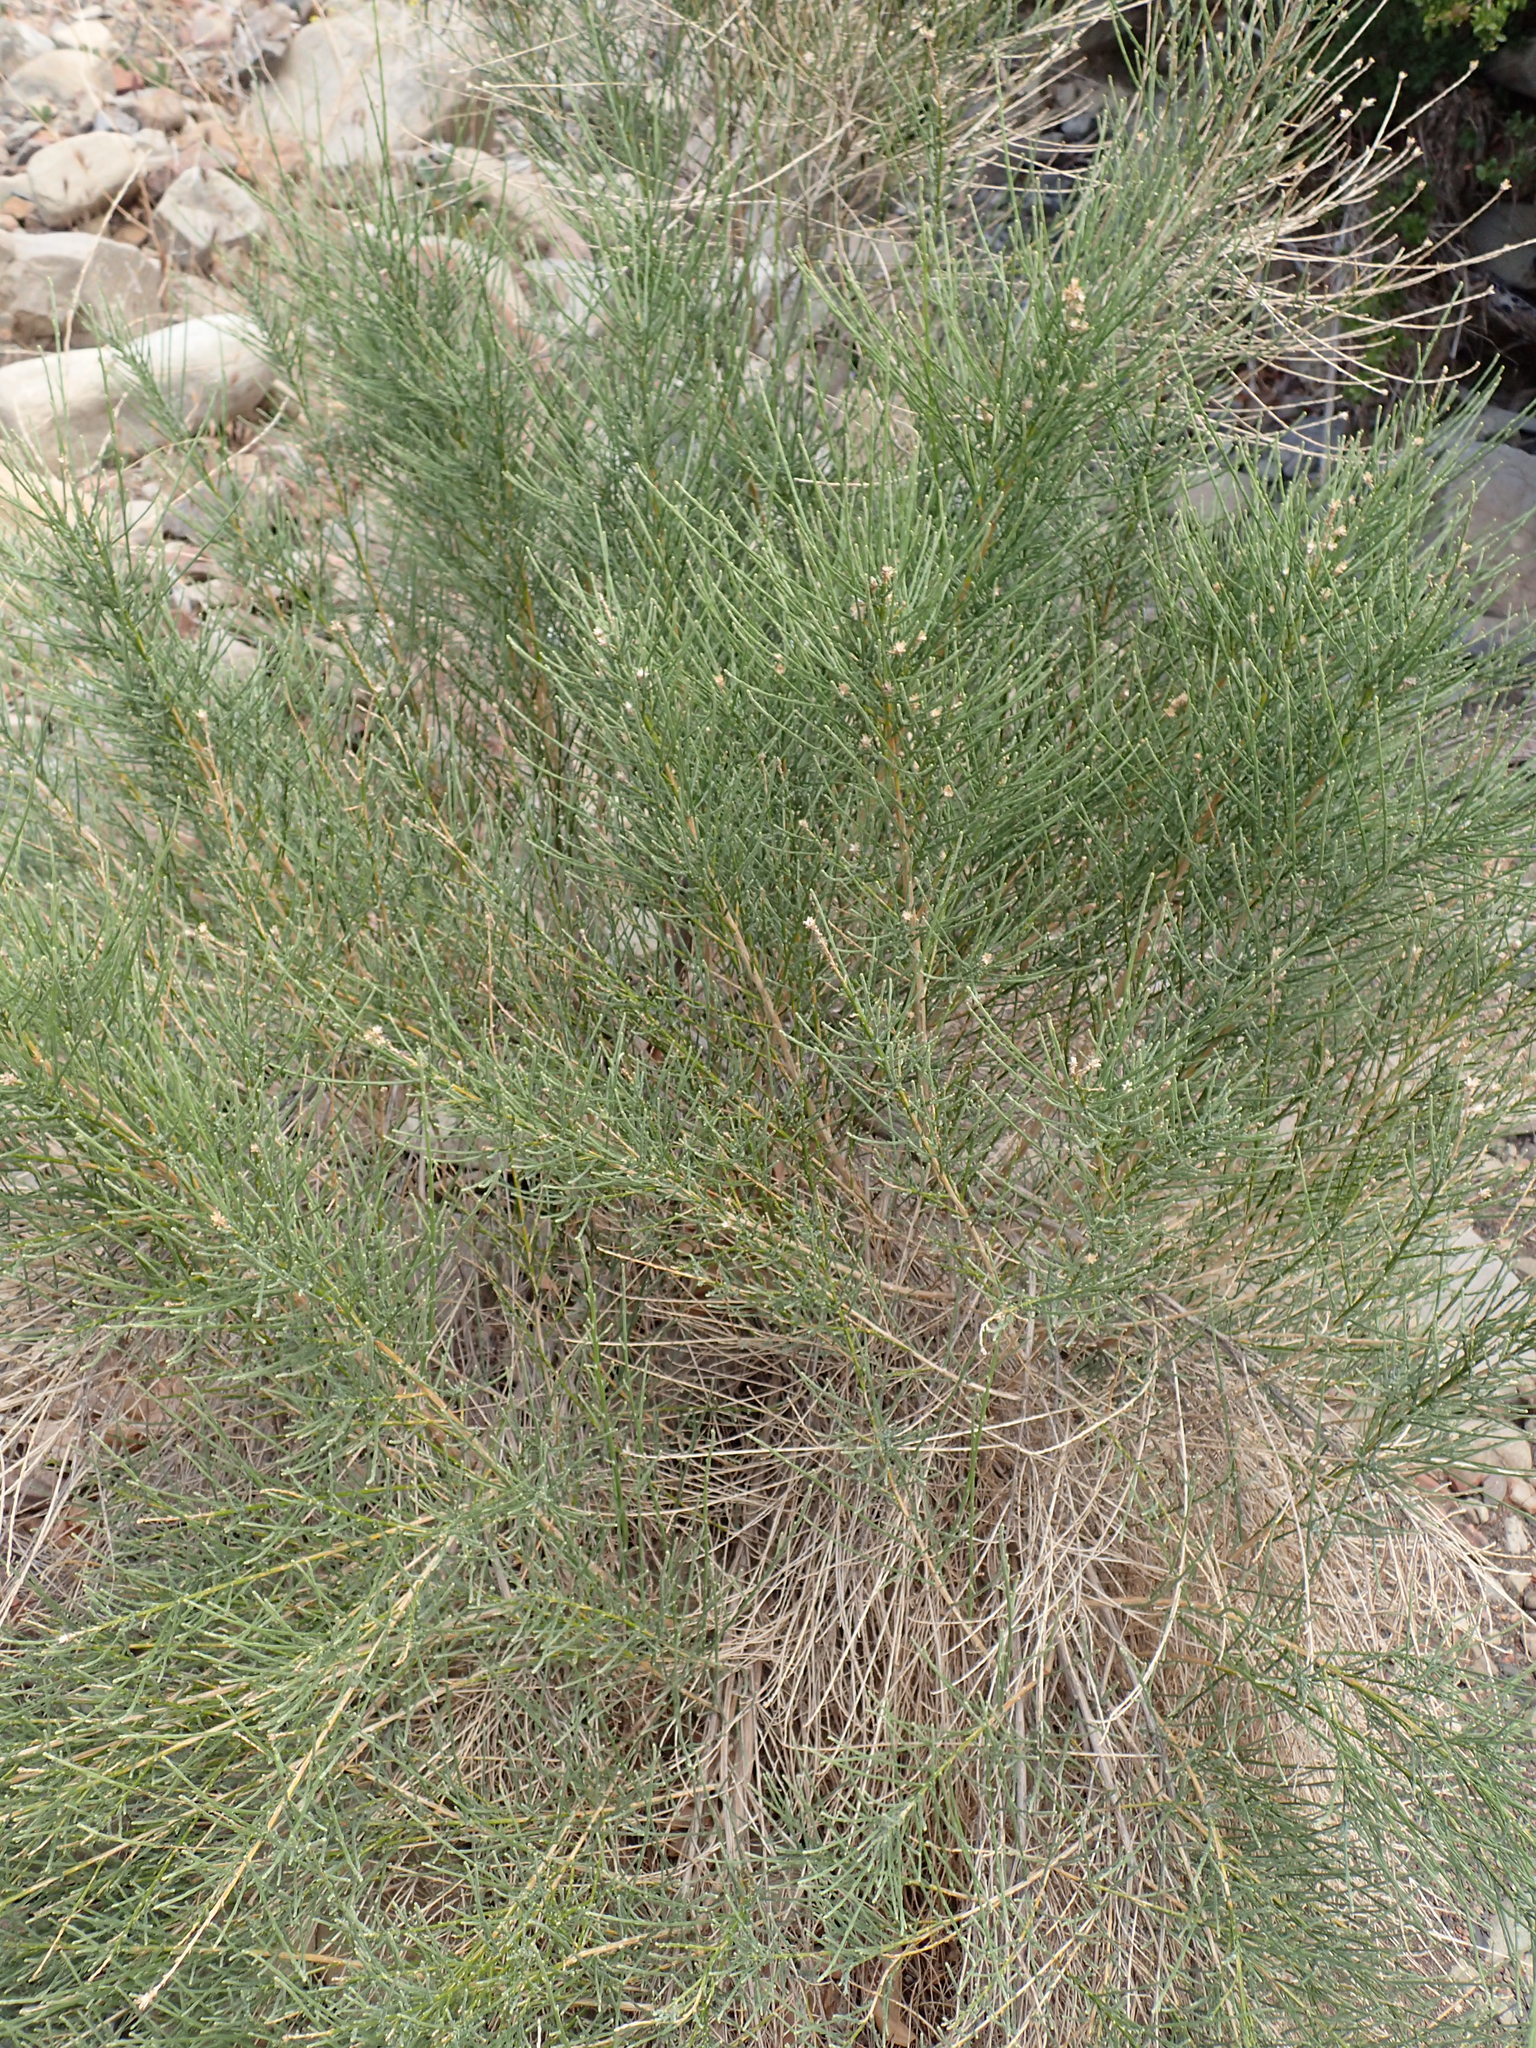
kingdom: Plantae
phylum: Tracheophyta
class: Magnoliopsida
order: Asterales
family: Asteraceae
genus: Lepidospartum
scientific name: Lepidospartum squamatum
